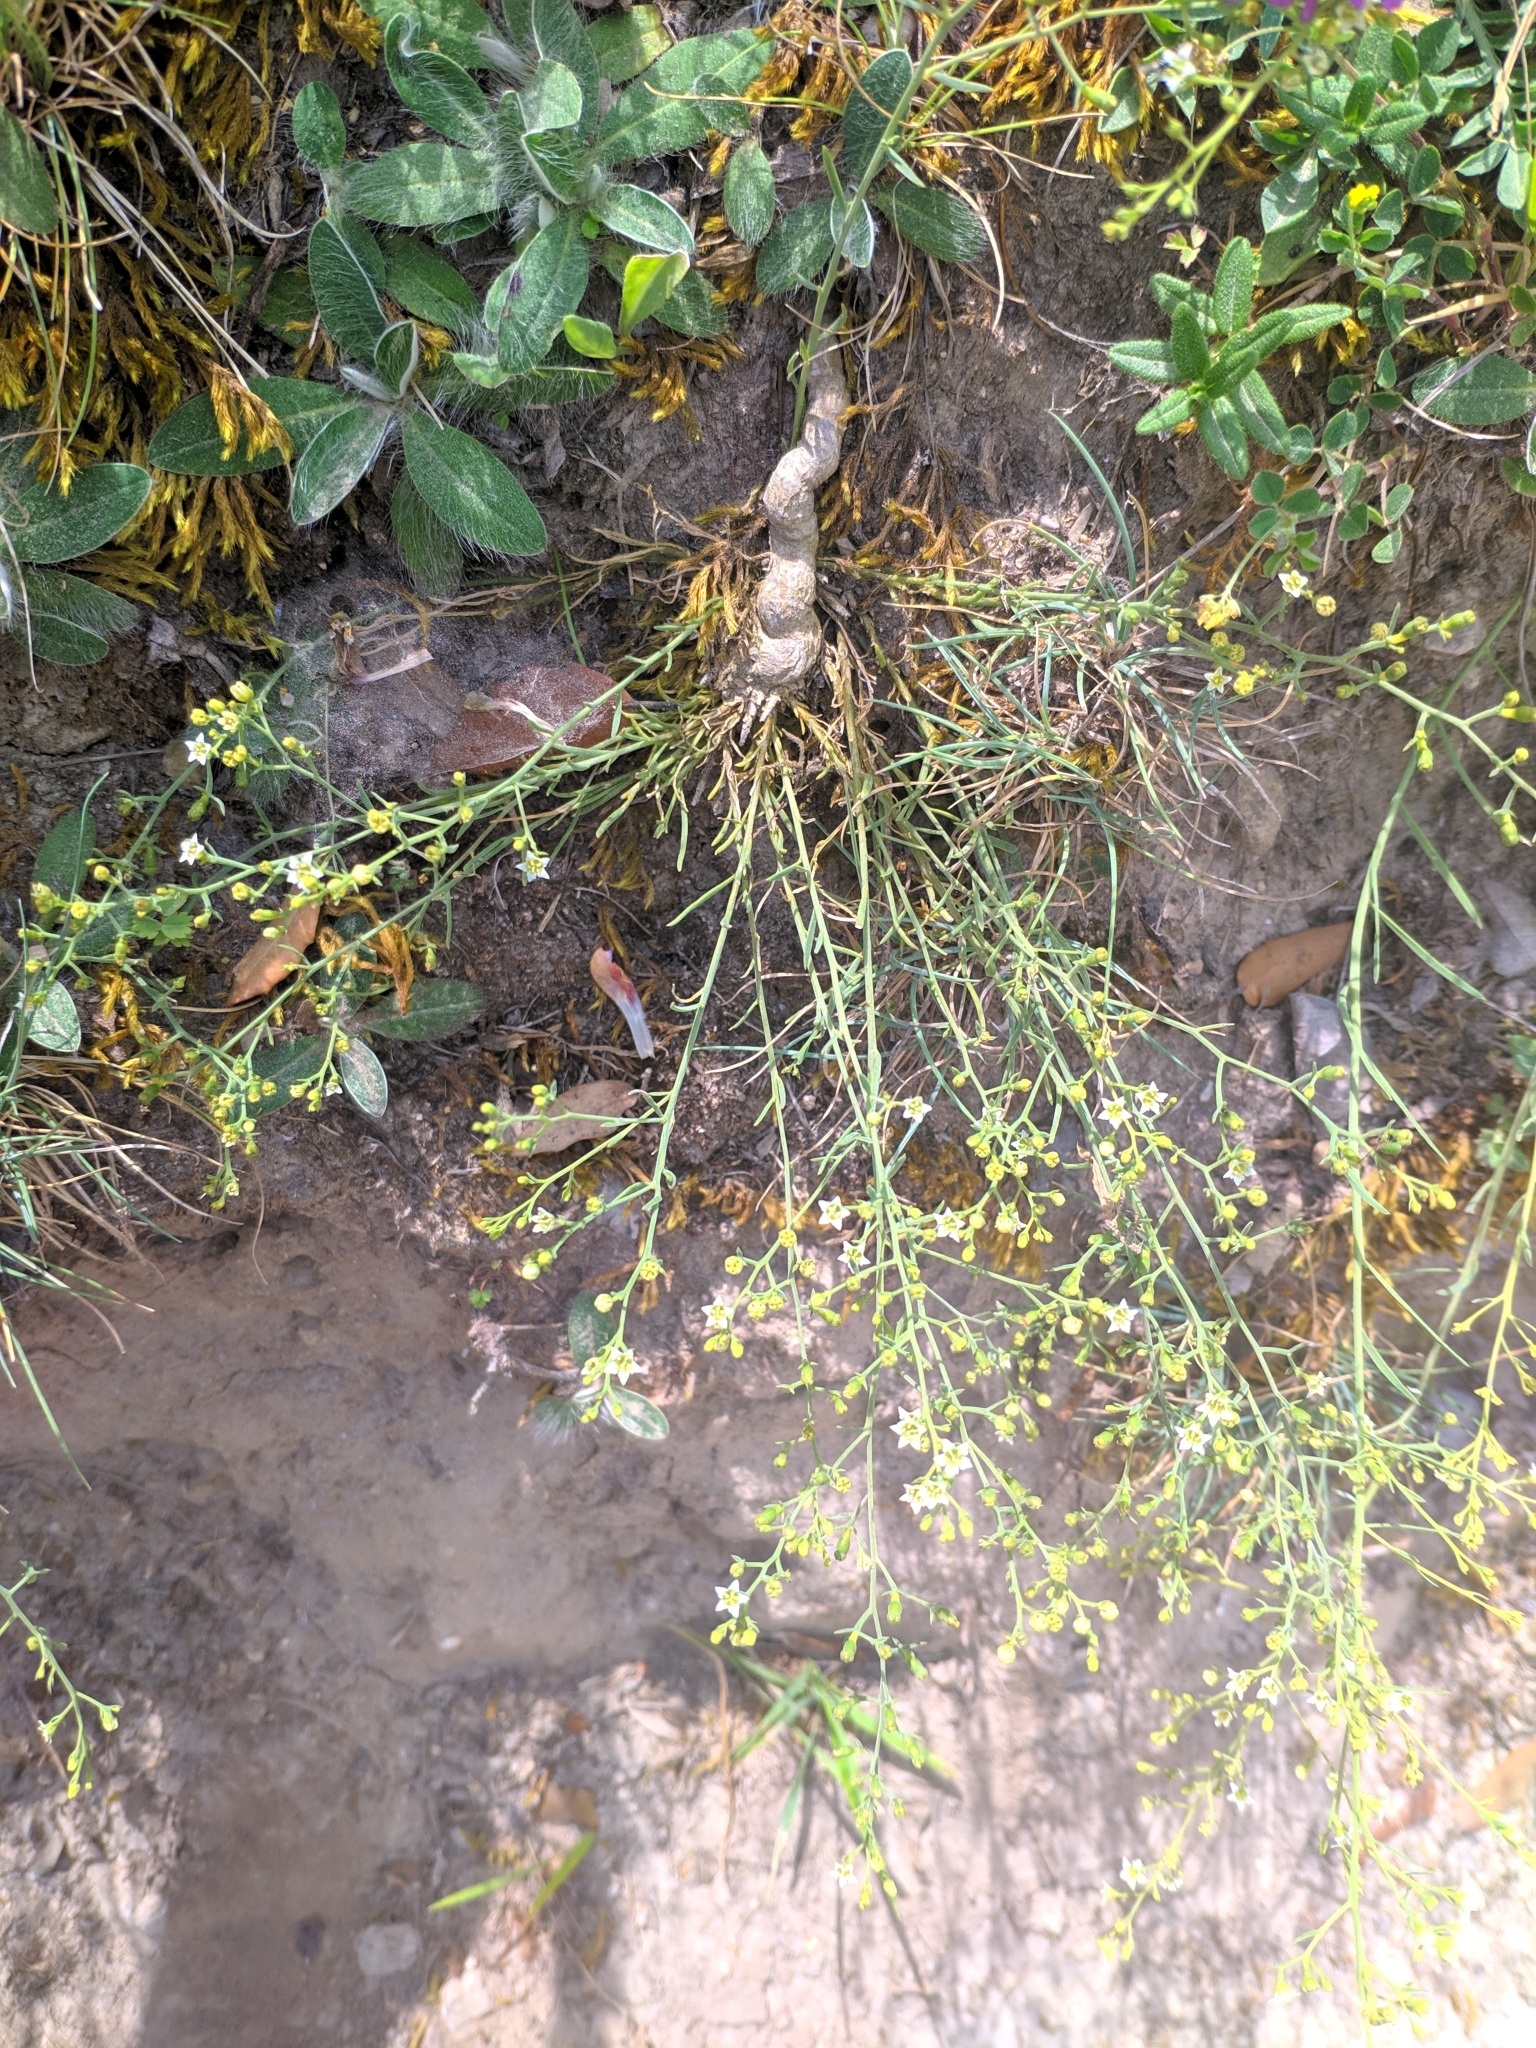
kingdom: Plantae
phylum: Tracheophyta
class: Magnoliopsida
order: Santalales
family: Thesiaceae
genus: Thesium
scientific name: Thesium divaricatum
